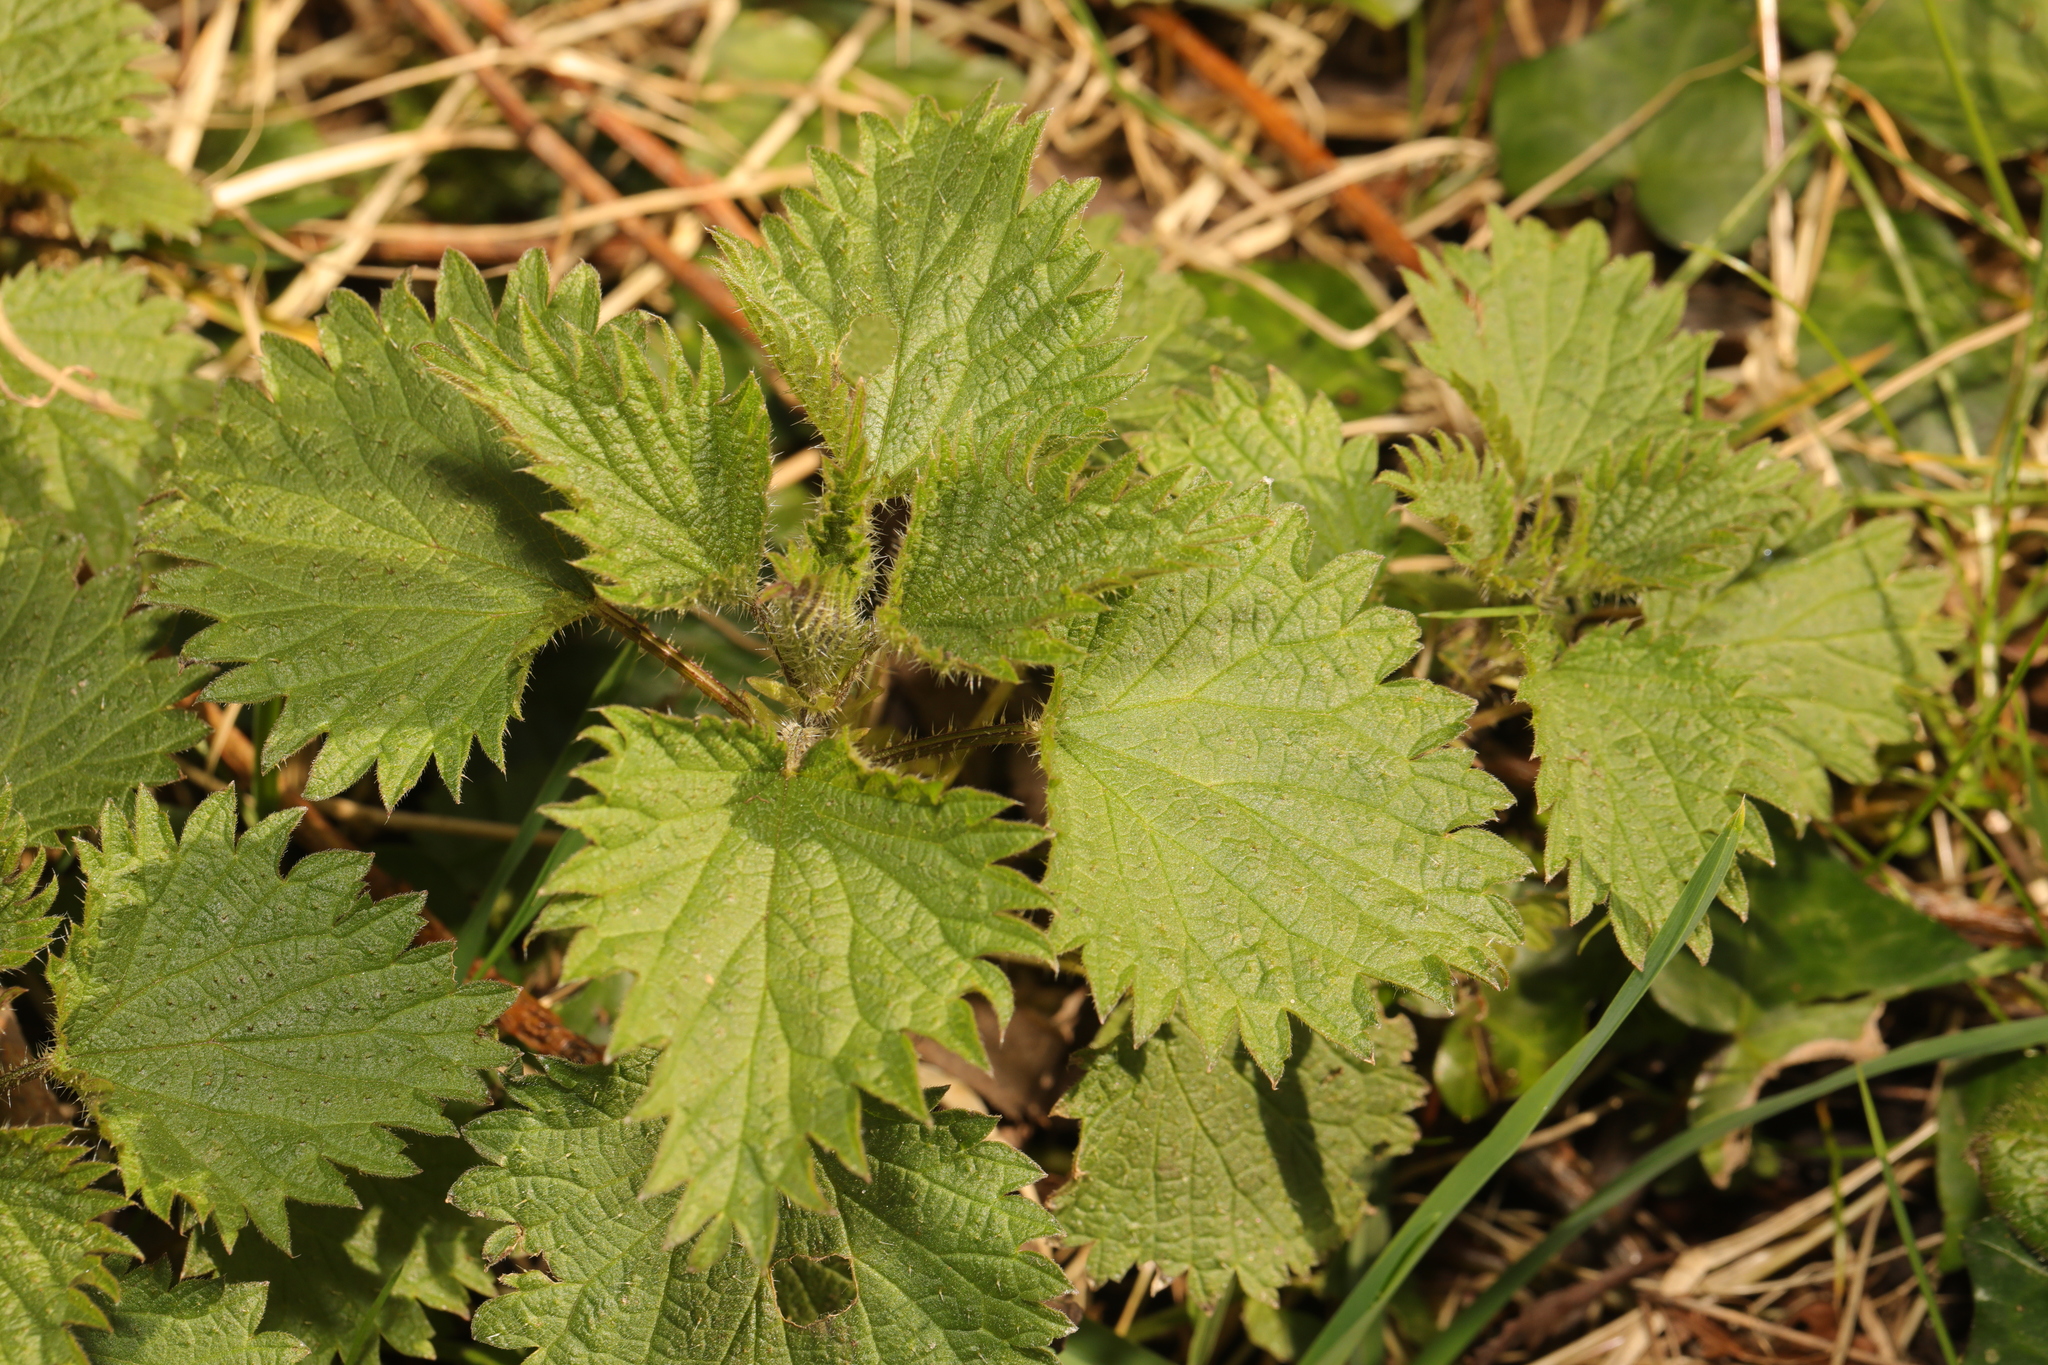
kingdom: Plantae
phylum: Tracheophyta
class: Magnoliopsida
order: Rosales
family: Urticaceae
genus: Urtica
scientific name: Urtica dioica
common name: Common nettle
